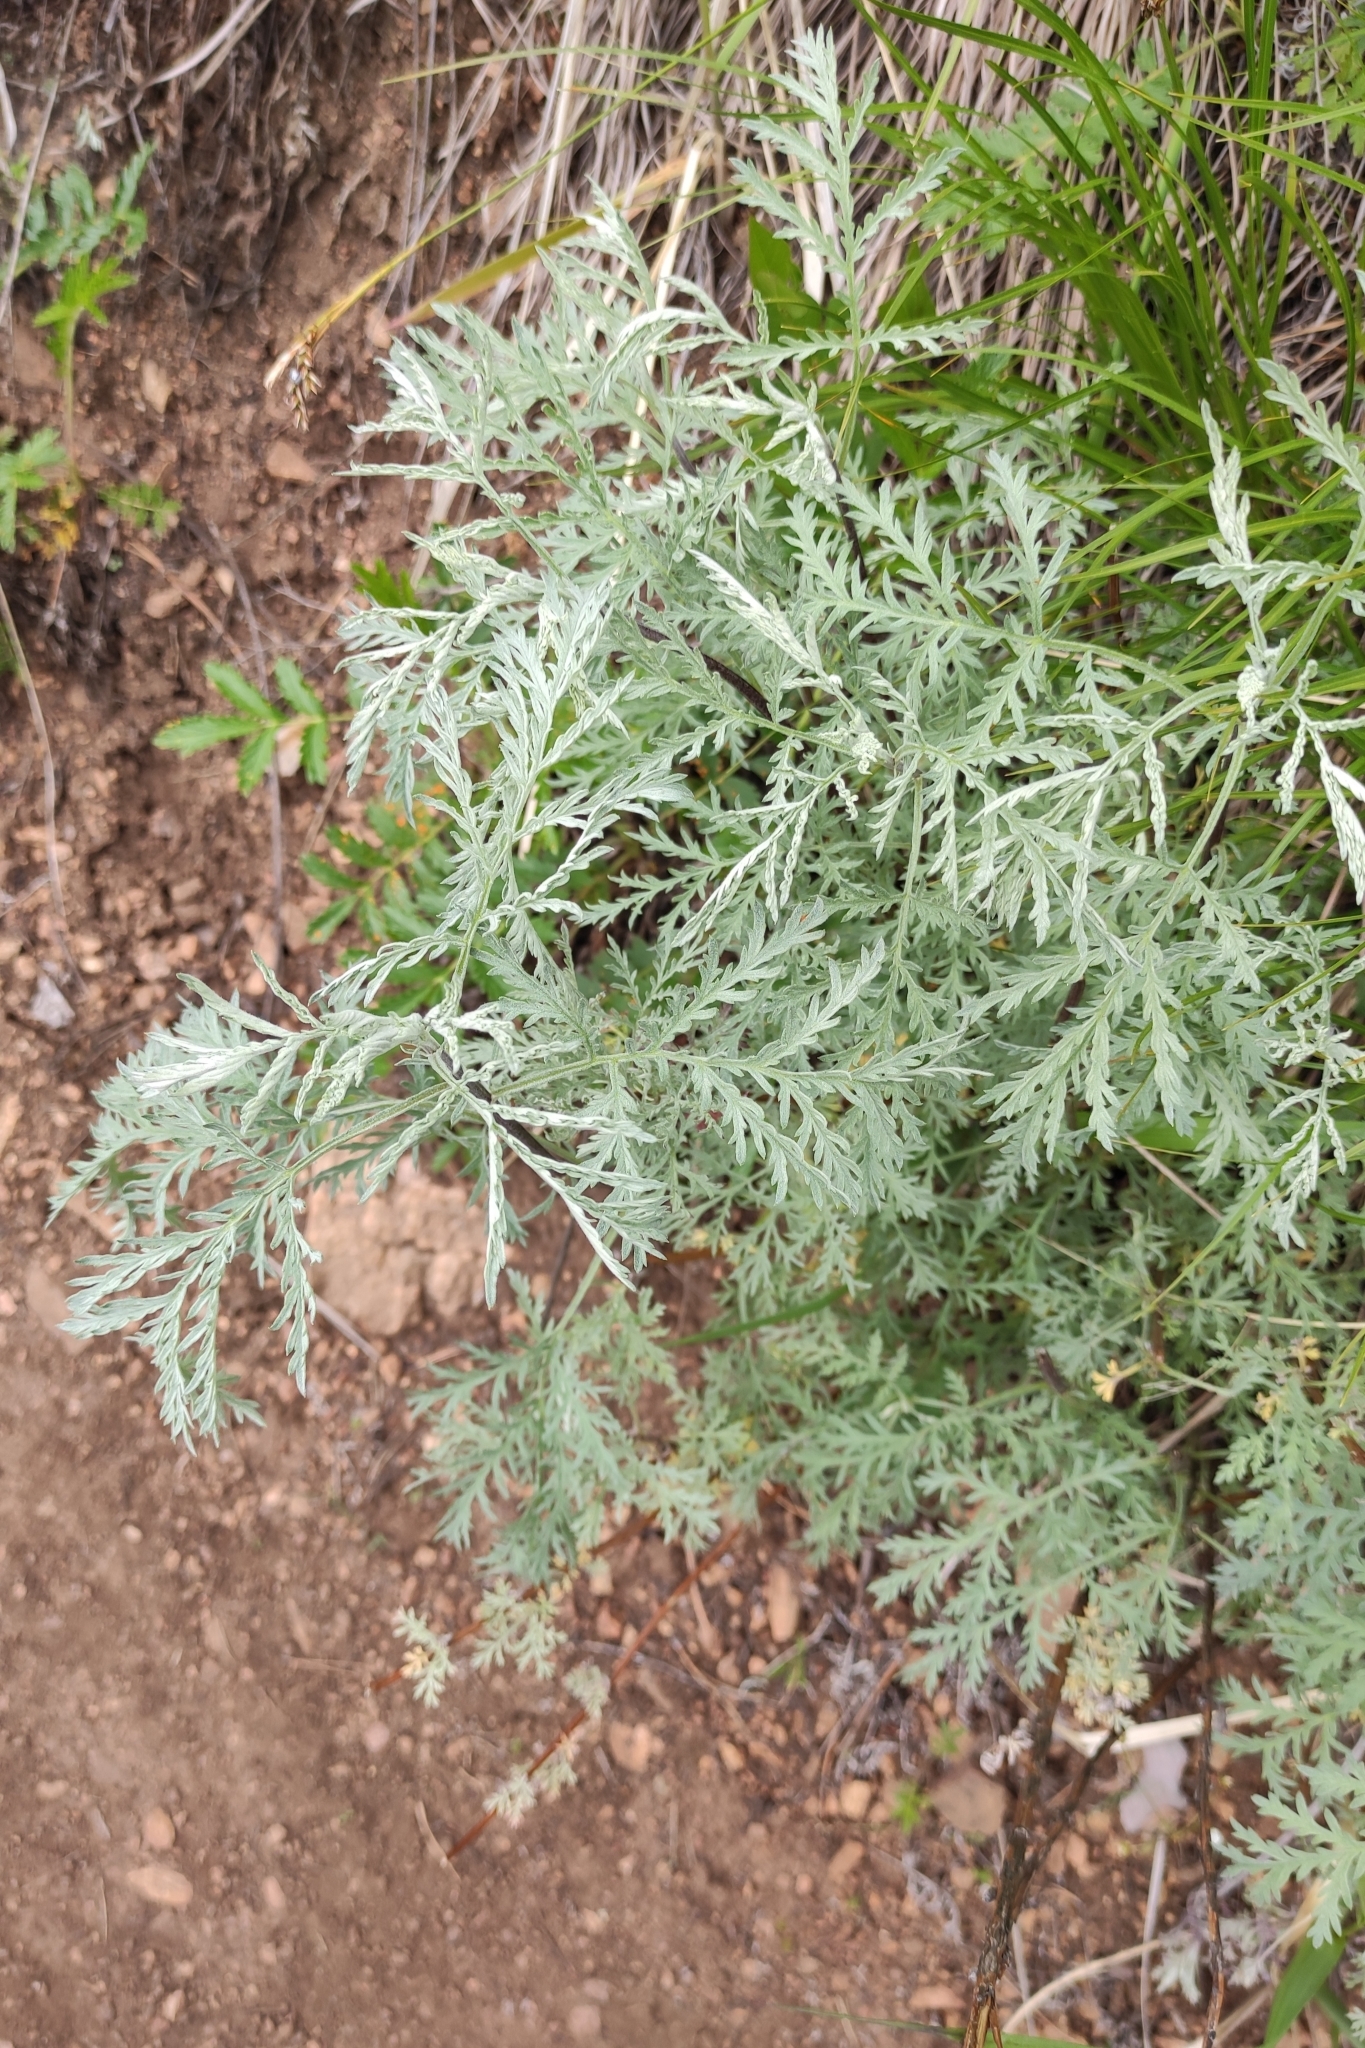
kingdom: Plantae
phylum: Tracheophyta
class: Magnoliopsida
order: Asterales
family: Asteraceae
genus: Artemisia
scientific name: Artemisia gmelinii
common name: Gmelin's wormwood
